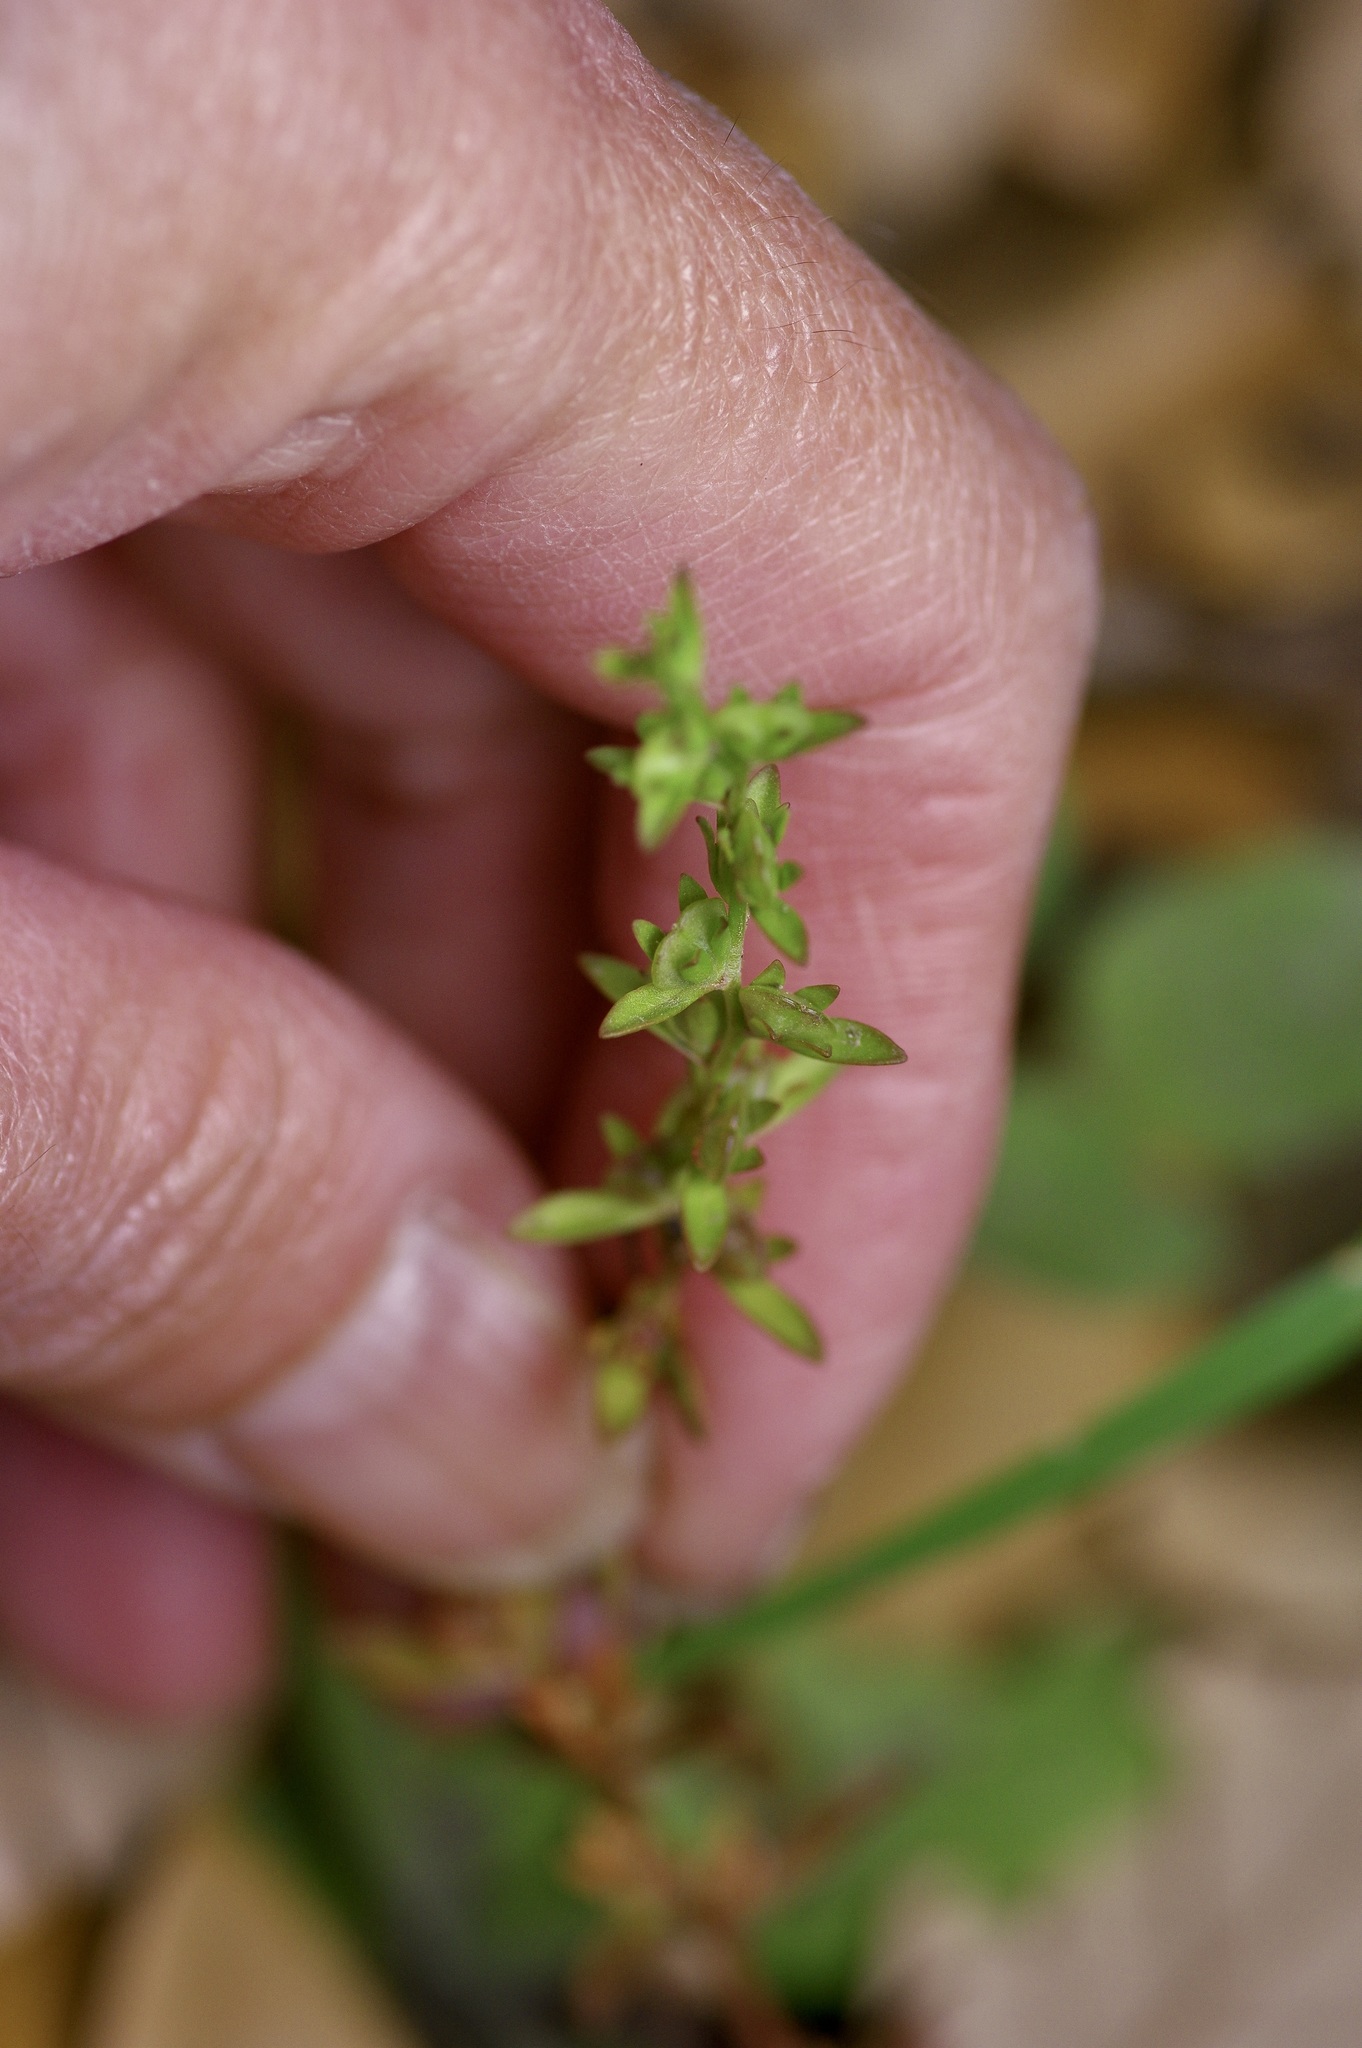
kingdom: Plantae
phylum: Tracheophyta
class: Magnoliopsida
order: Lamiales
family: Plantaginaceae
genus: Veronica
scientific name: Veronica peregrina
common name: Neckweed
